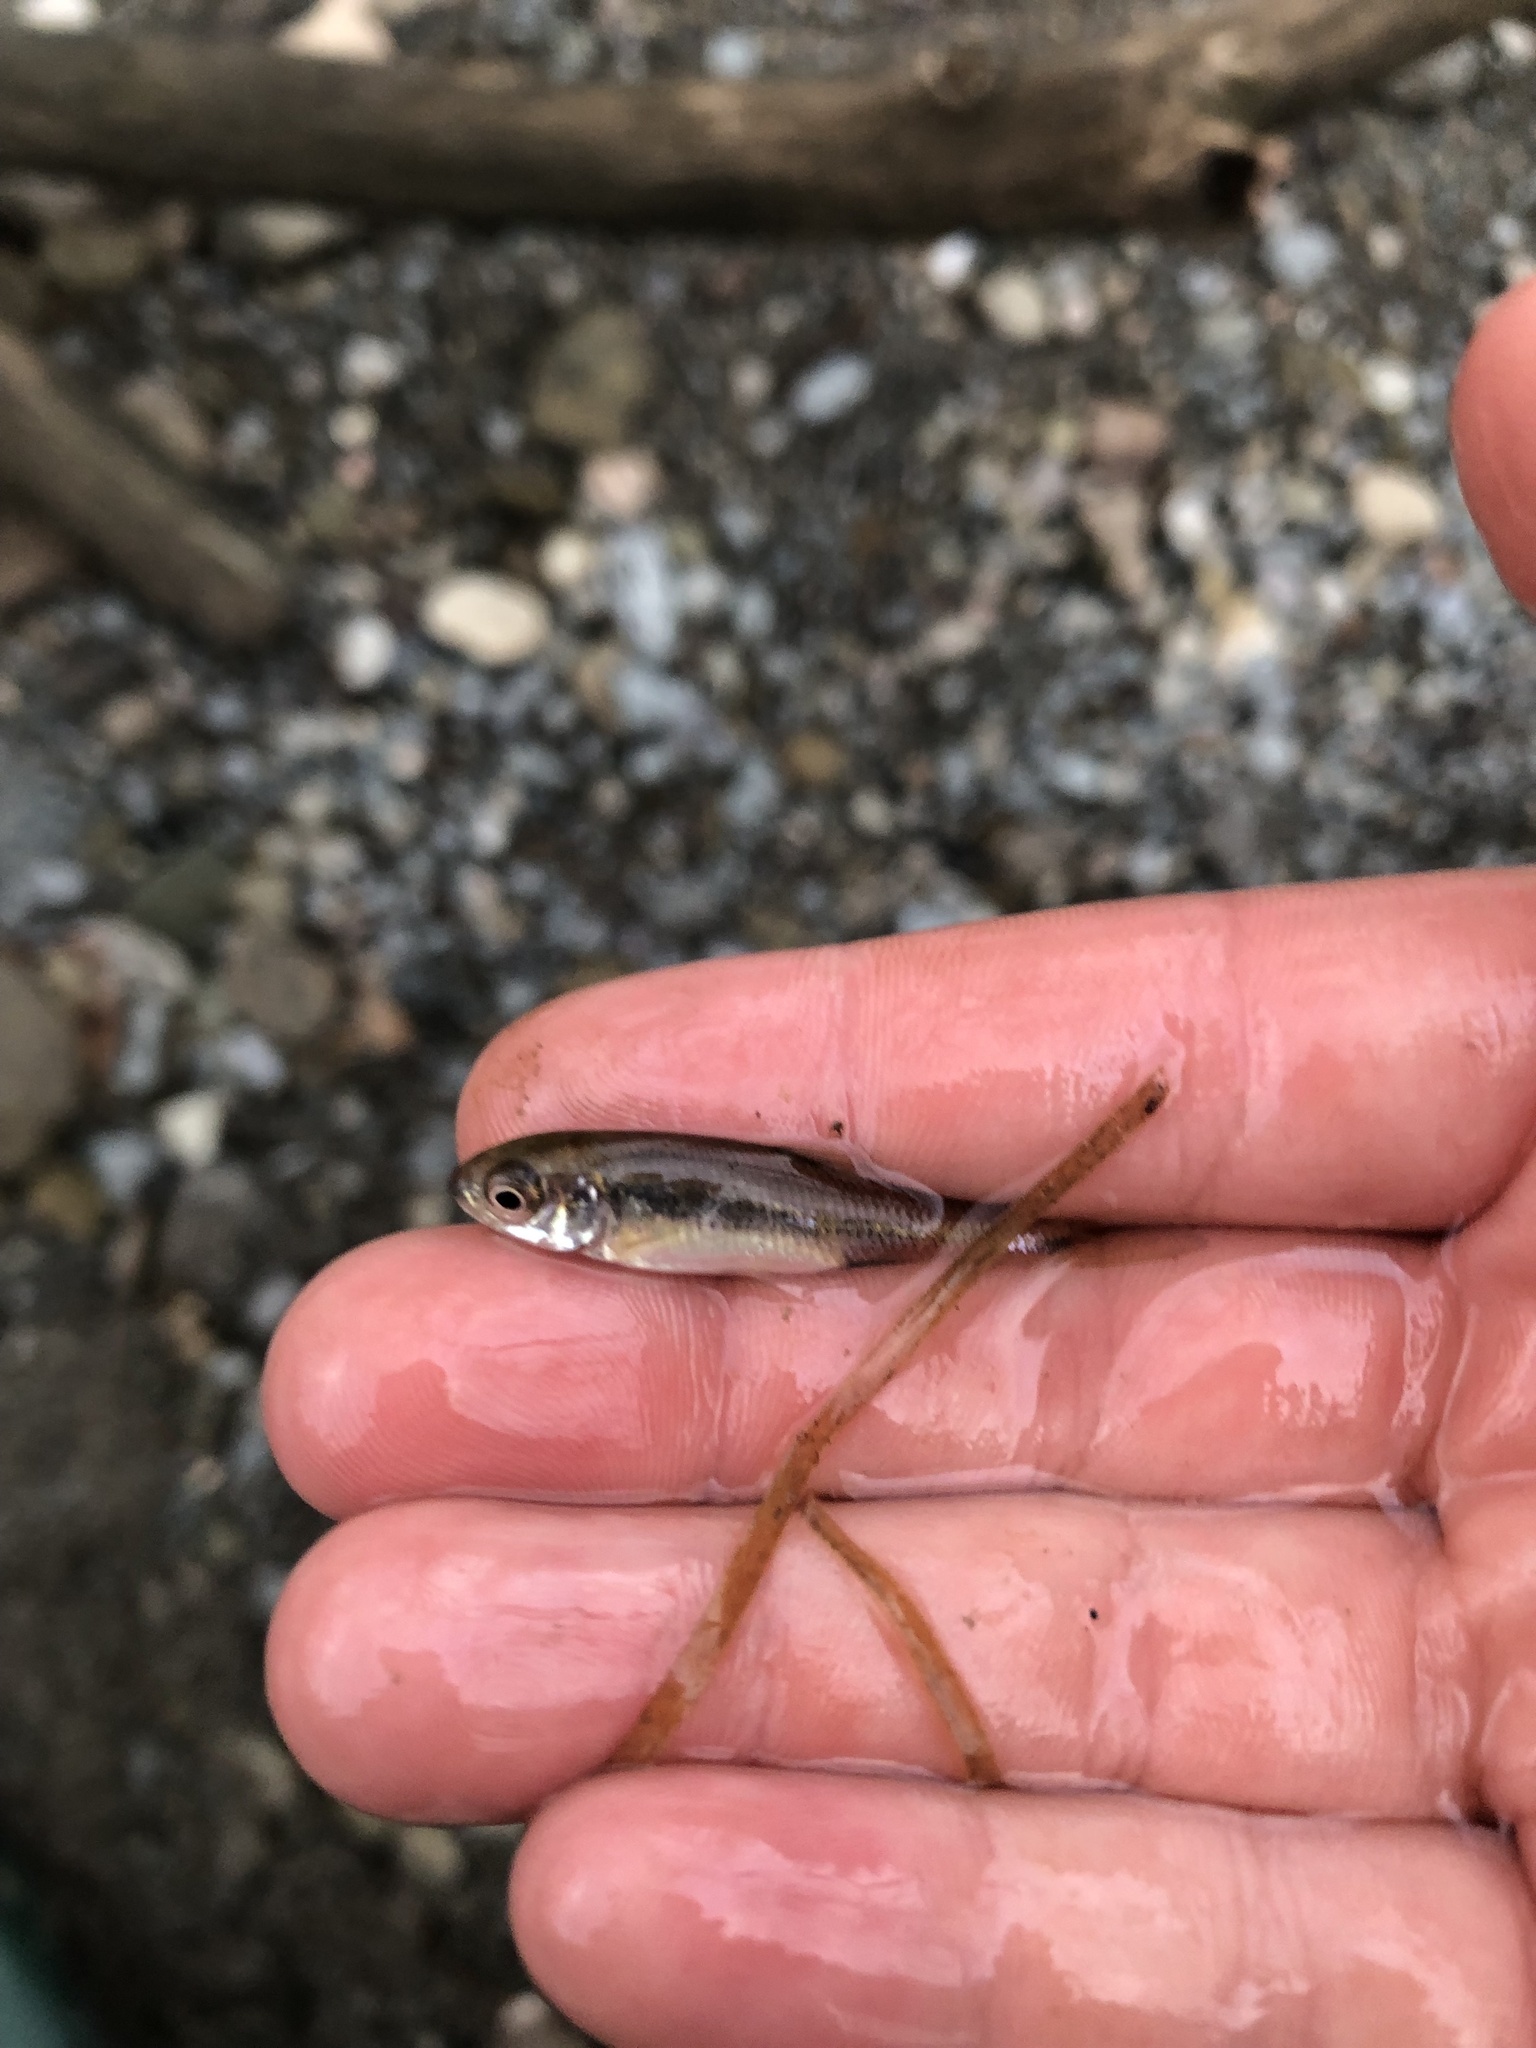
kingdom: Animalia
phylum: Chordata
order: Cypriniformes
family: Cyprinidae
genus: Luxilus
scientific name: Luxilus cornutus
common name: Common shiner
